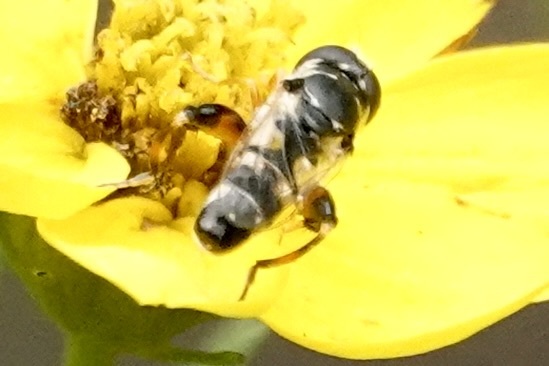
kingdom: Animalia
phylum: Arthropoda
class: Insecta
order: Diptera
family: Syrphidae
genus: Syritta
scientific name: Syritta flaviventris
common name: Syrphid fly
